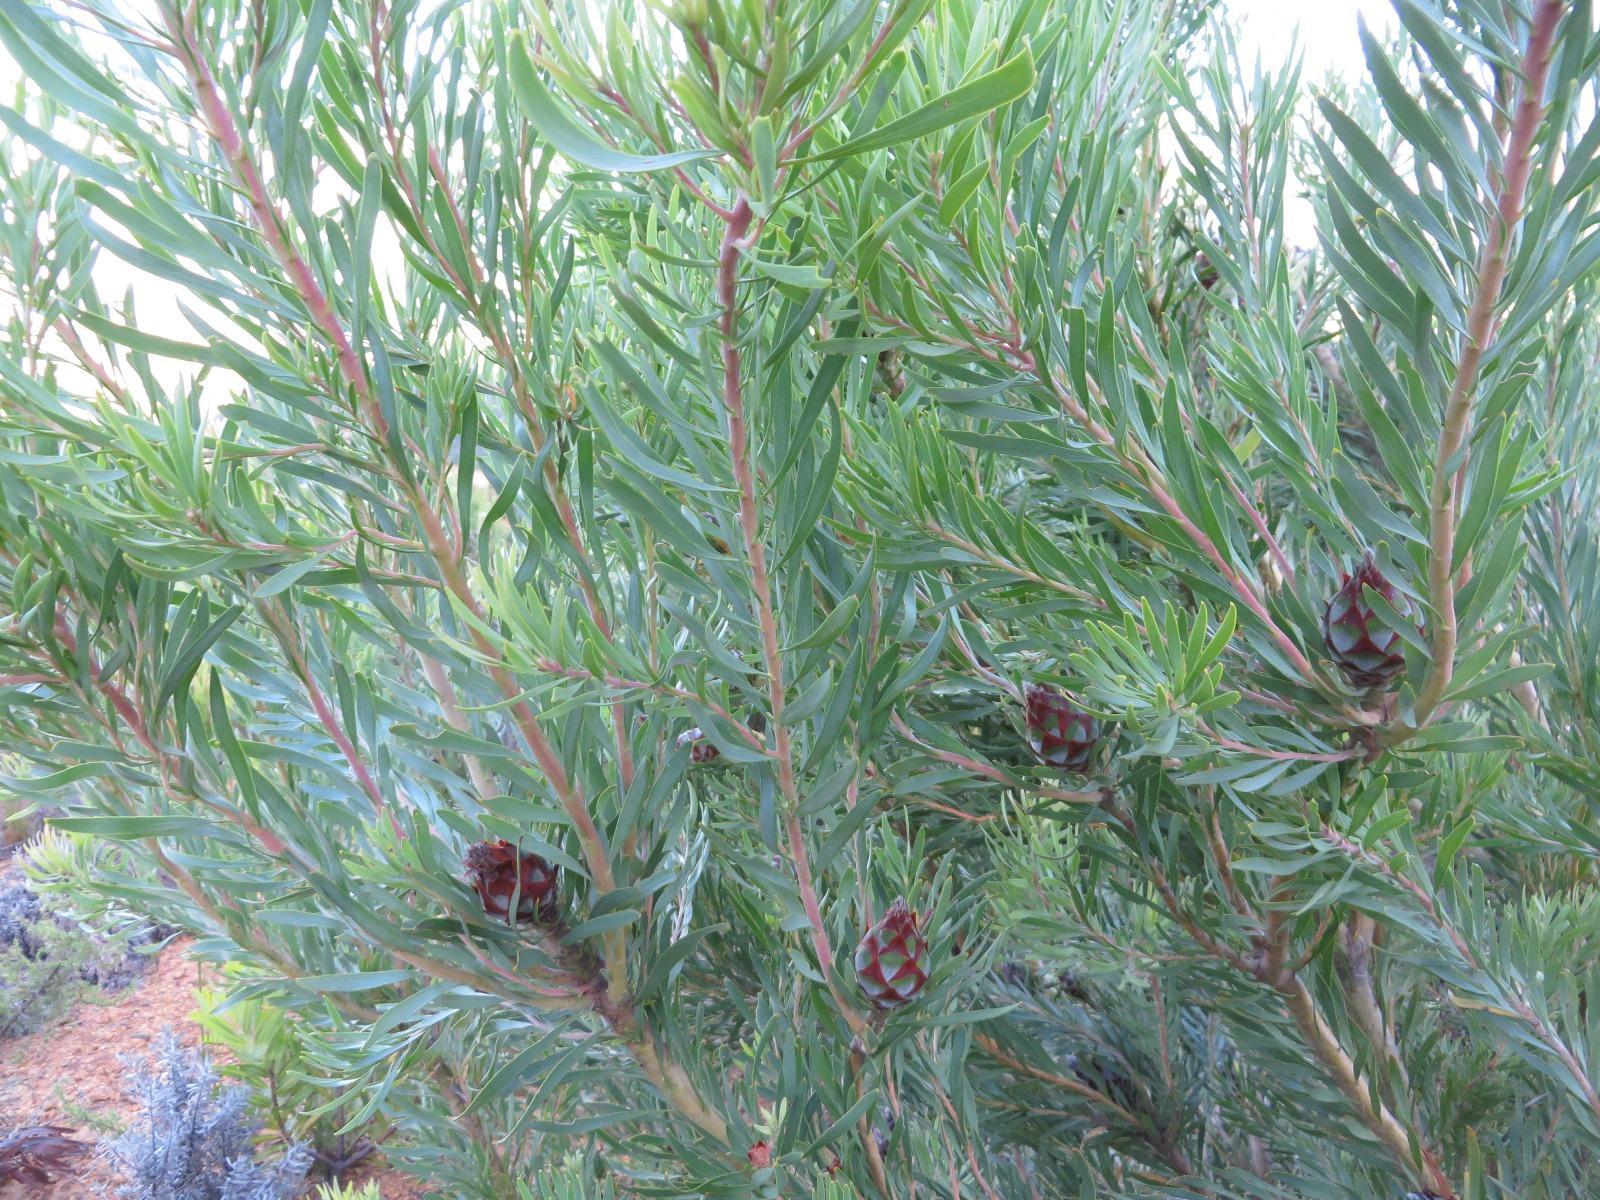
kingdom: Plantae
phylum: Tracheophyta
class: Magnoliopsida
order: Proteales
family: Proteaceae
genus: Leucadendron
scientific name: Leucadendron rubrum
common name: Spinning top
